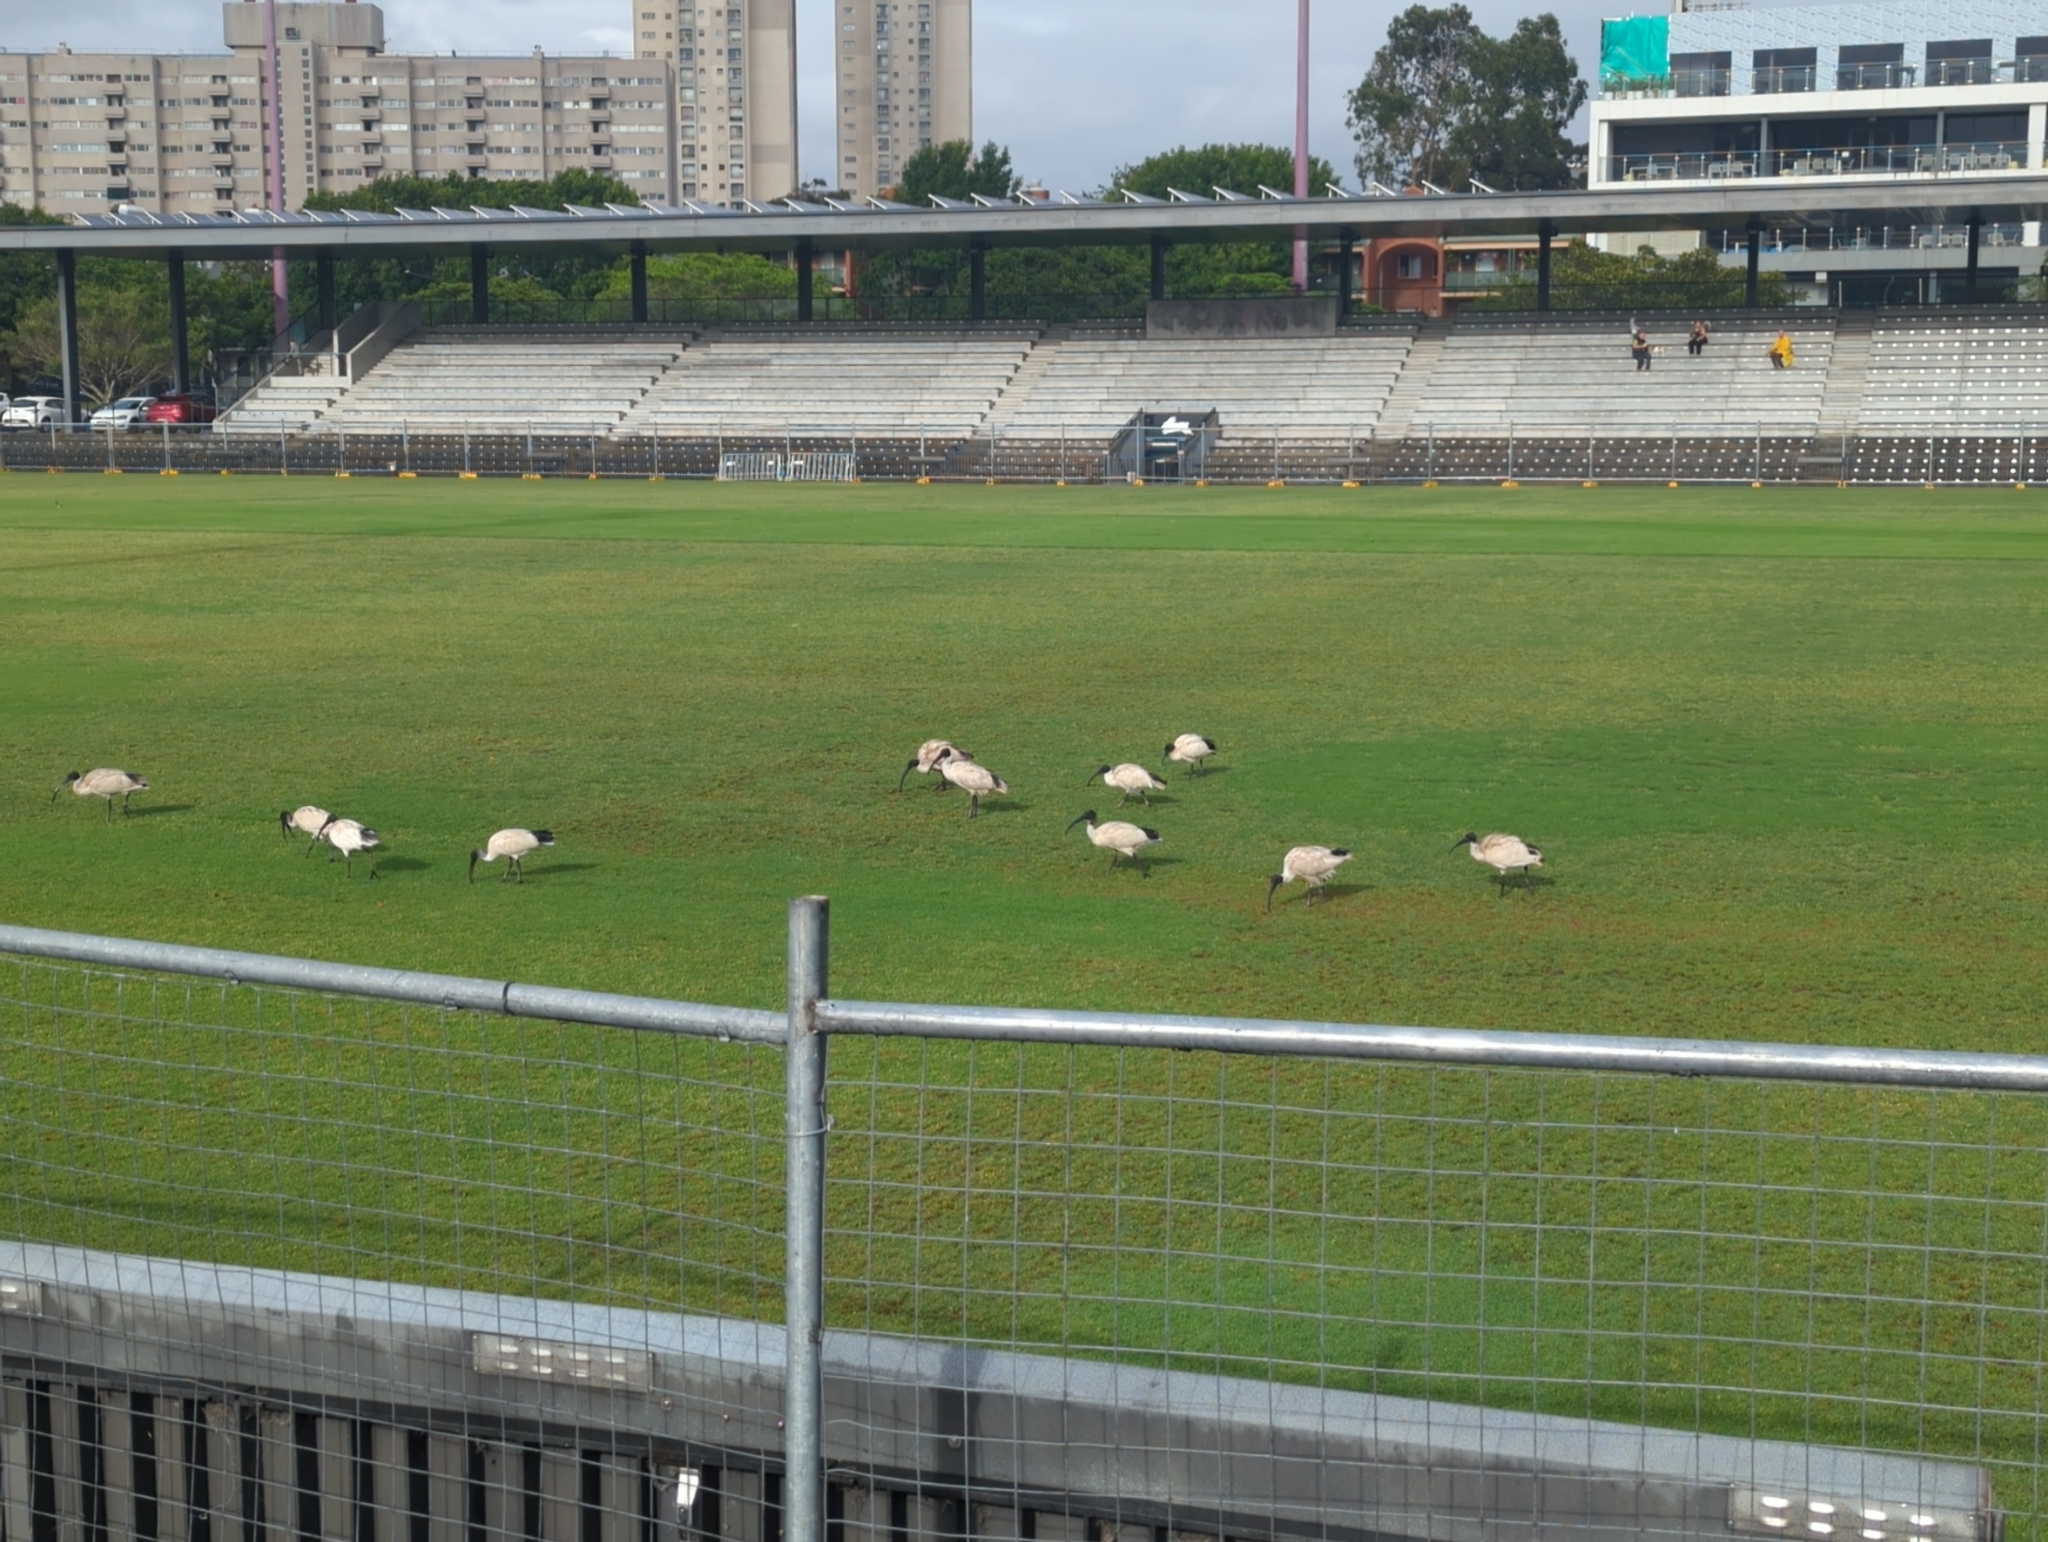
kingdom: Animalia
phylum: Chordata
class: Aves
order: Pelecaniformes
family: Threskiornithidae
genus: Threskiornis
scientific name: Threskiornis molucca
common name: Australian white ibis
